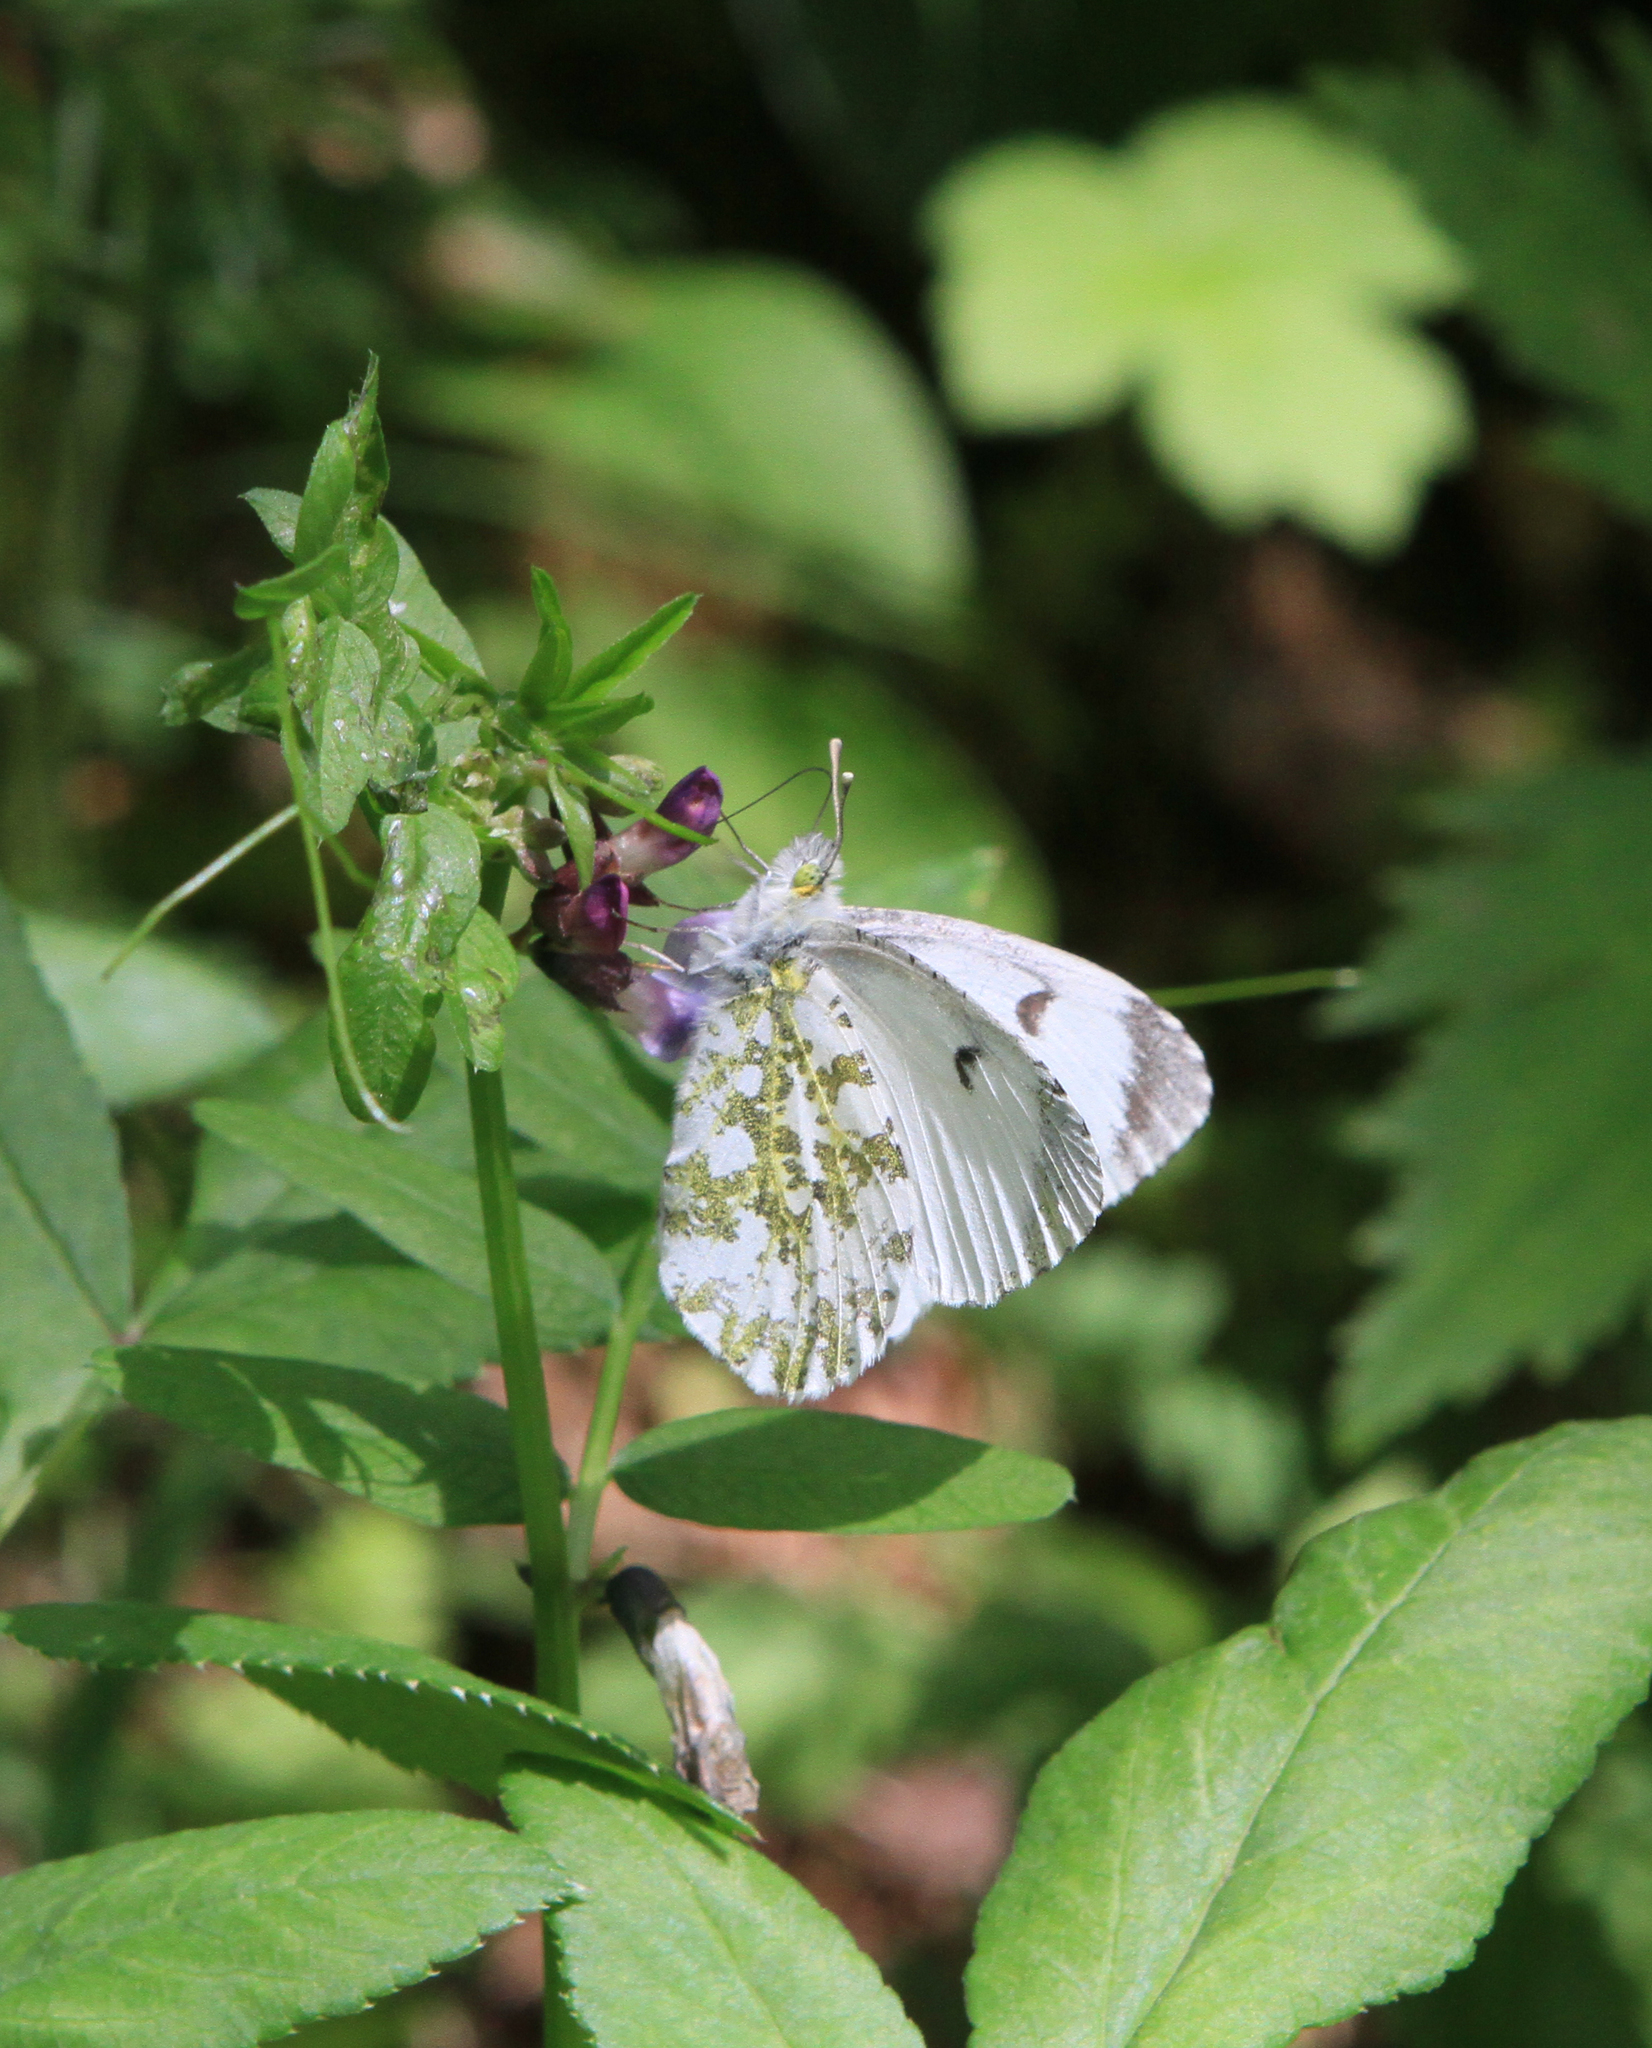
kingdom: Plantae
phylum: Tracheophyta
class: Magnoliopsida
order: Fabales
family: Fabaceae
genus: Vicia
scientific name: Vicia sepium
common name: Bush vetch
